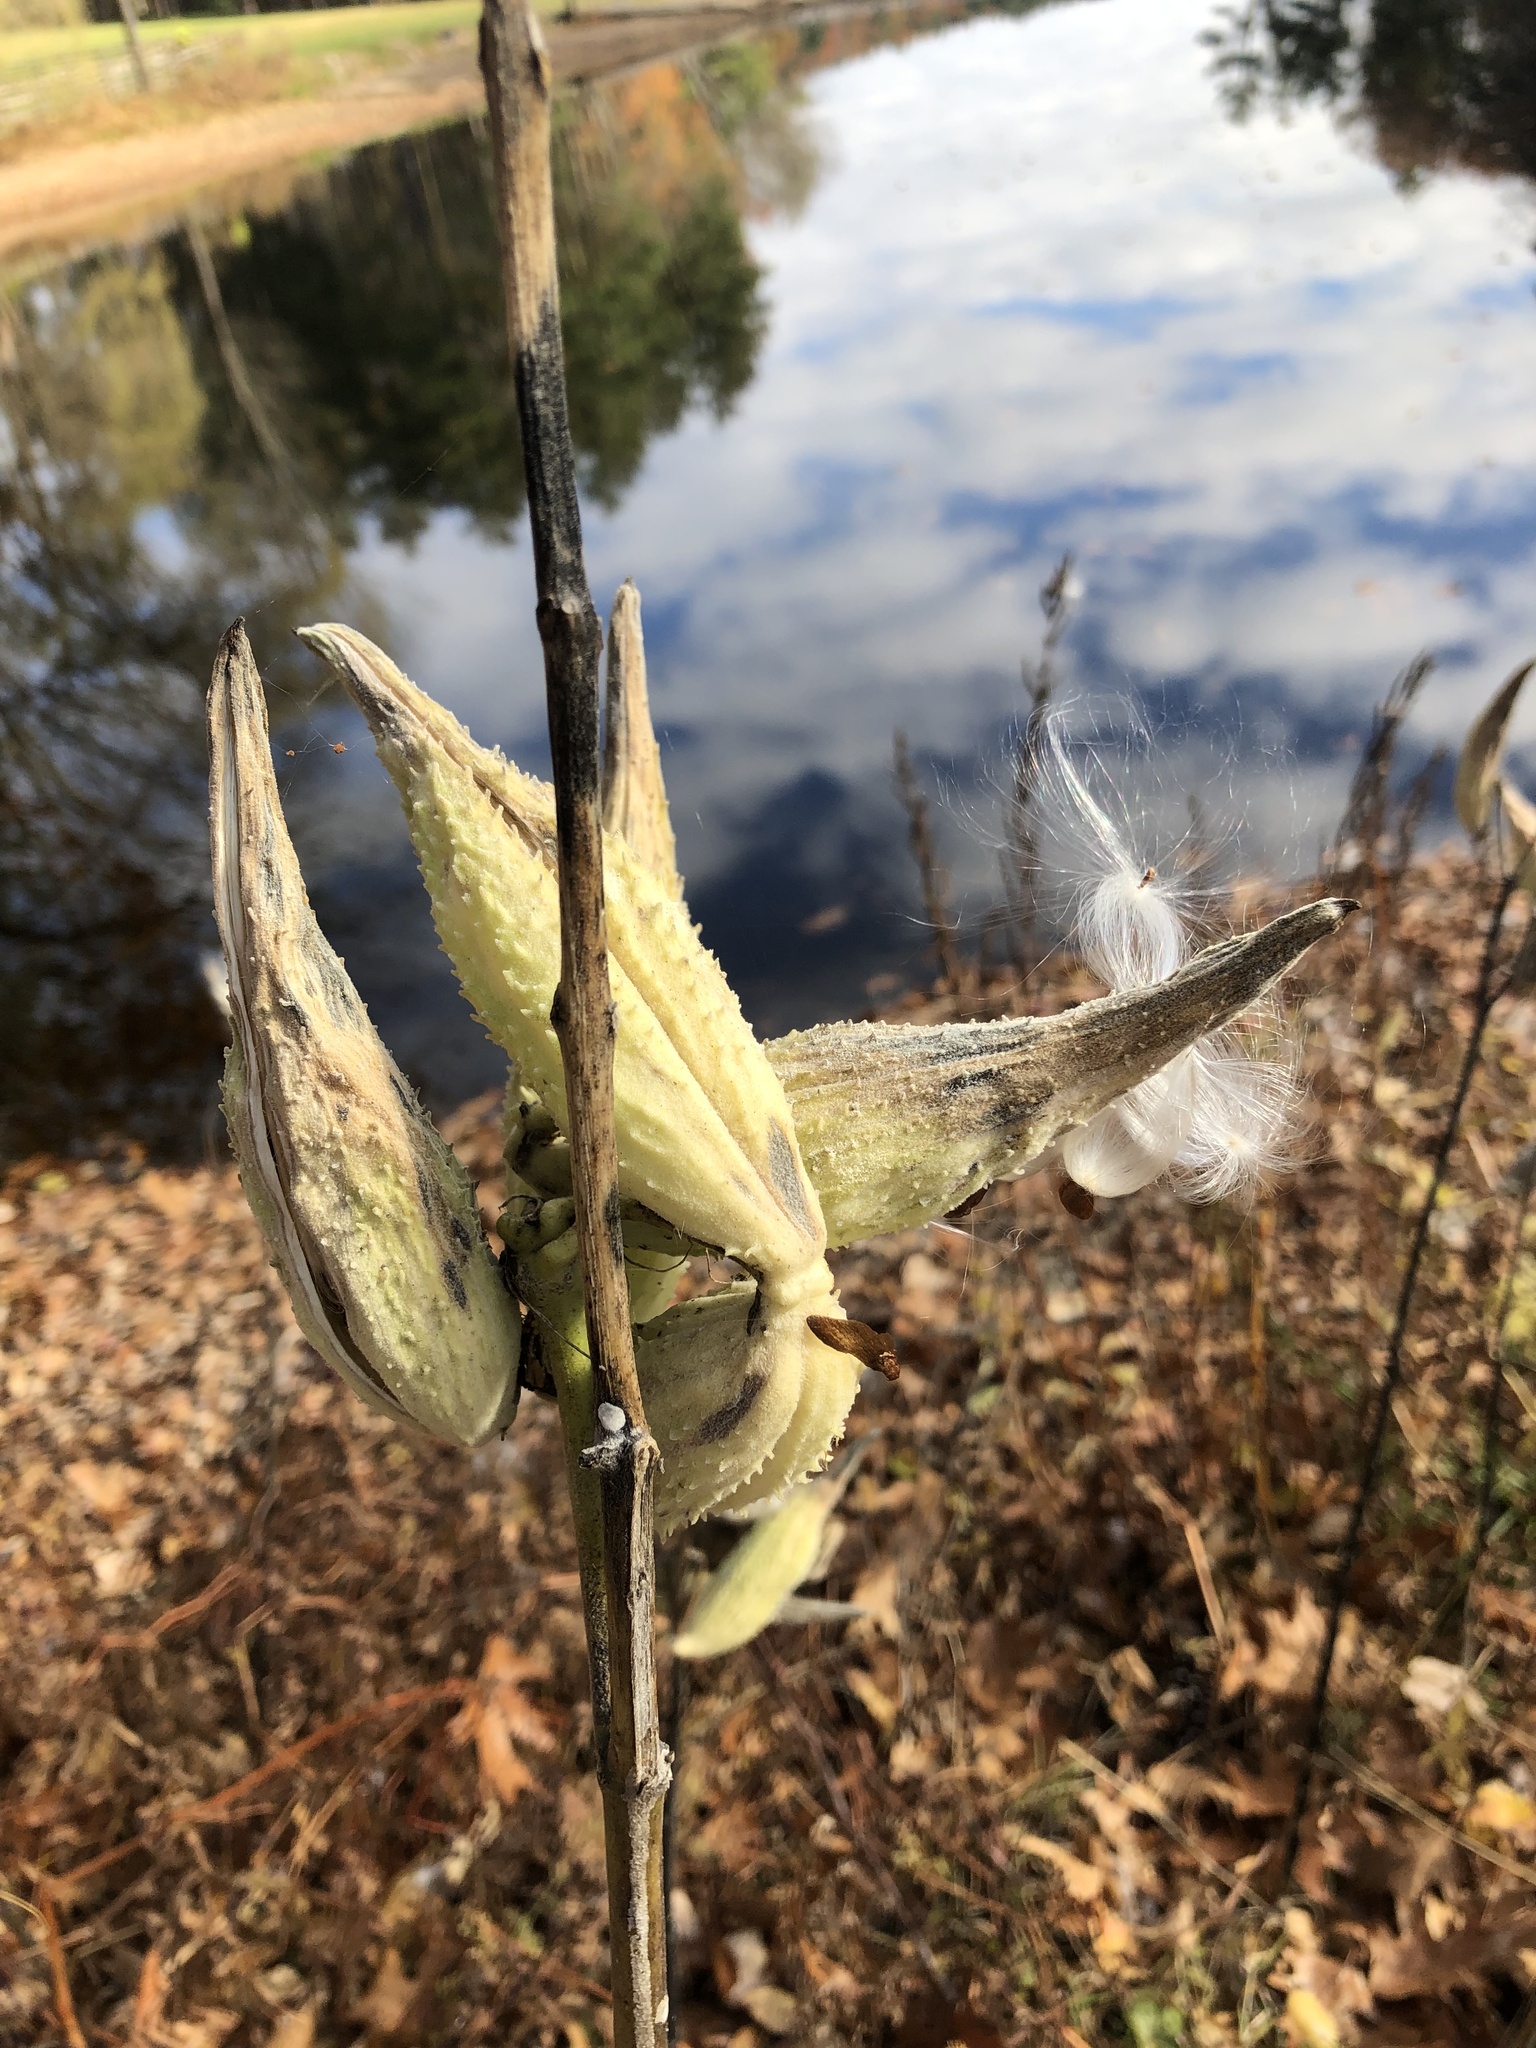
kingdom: Plantae
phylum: Tracheophyta
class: Magnoliopsida
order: Gentianales
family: Apocynaceae
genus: Asclepias
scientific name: Asclepias syriaca
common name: Common milkweed
